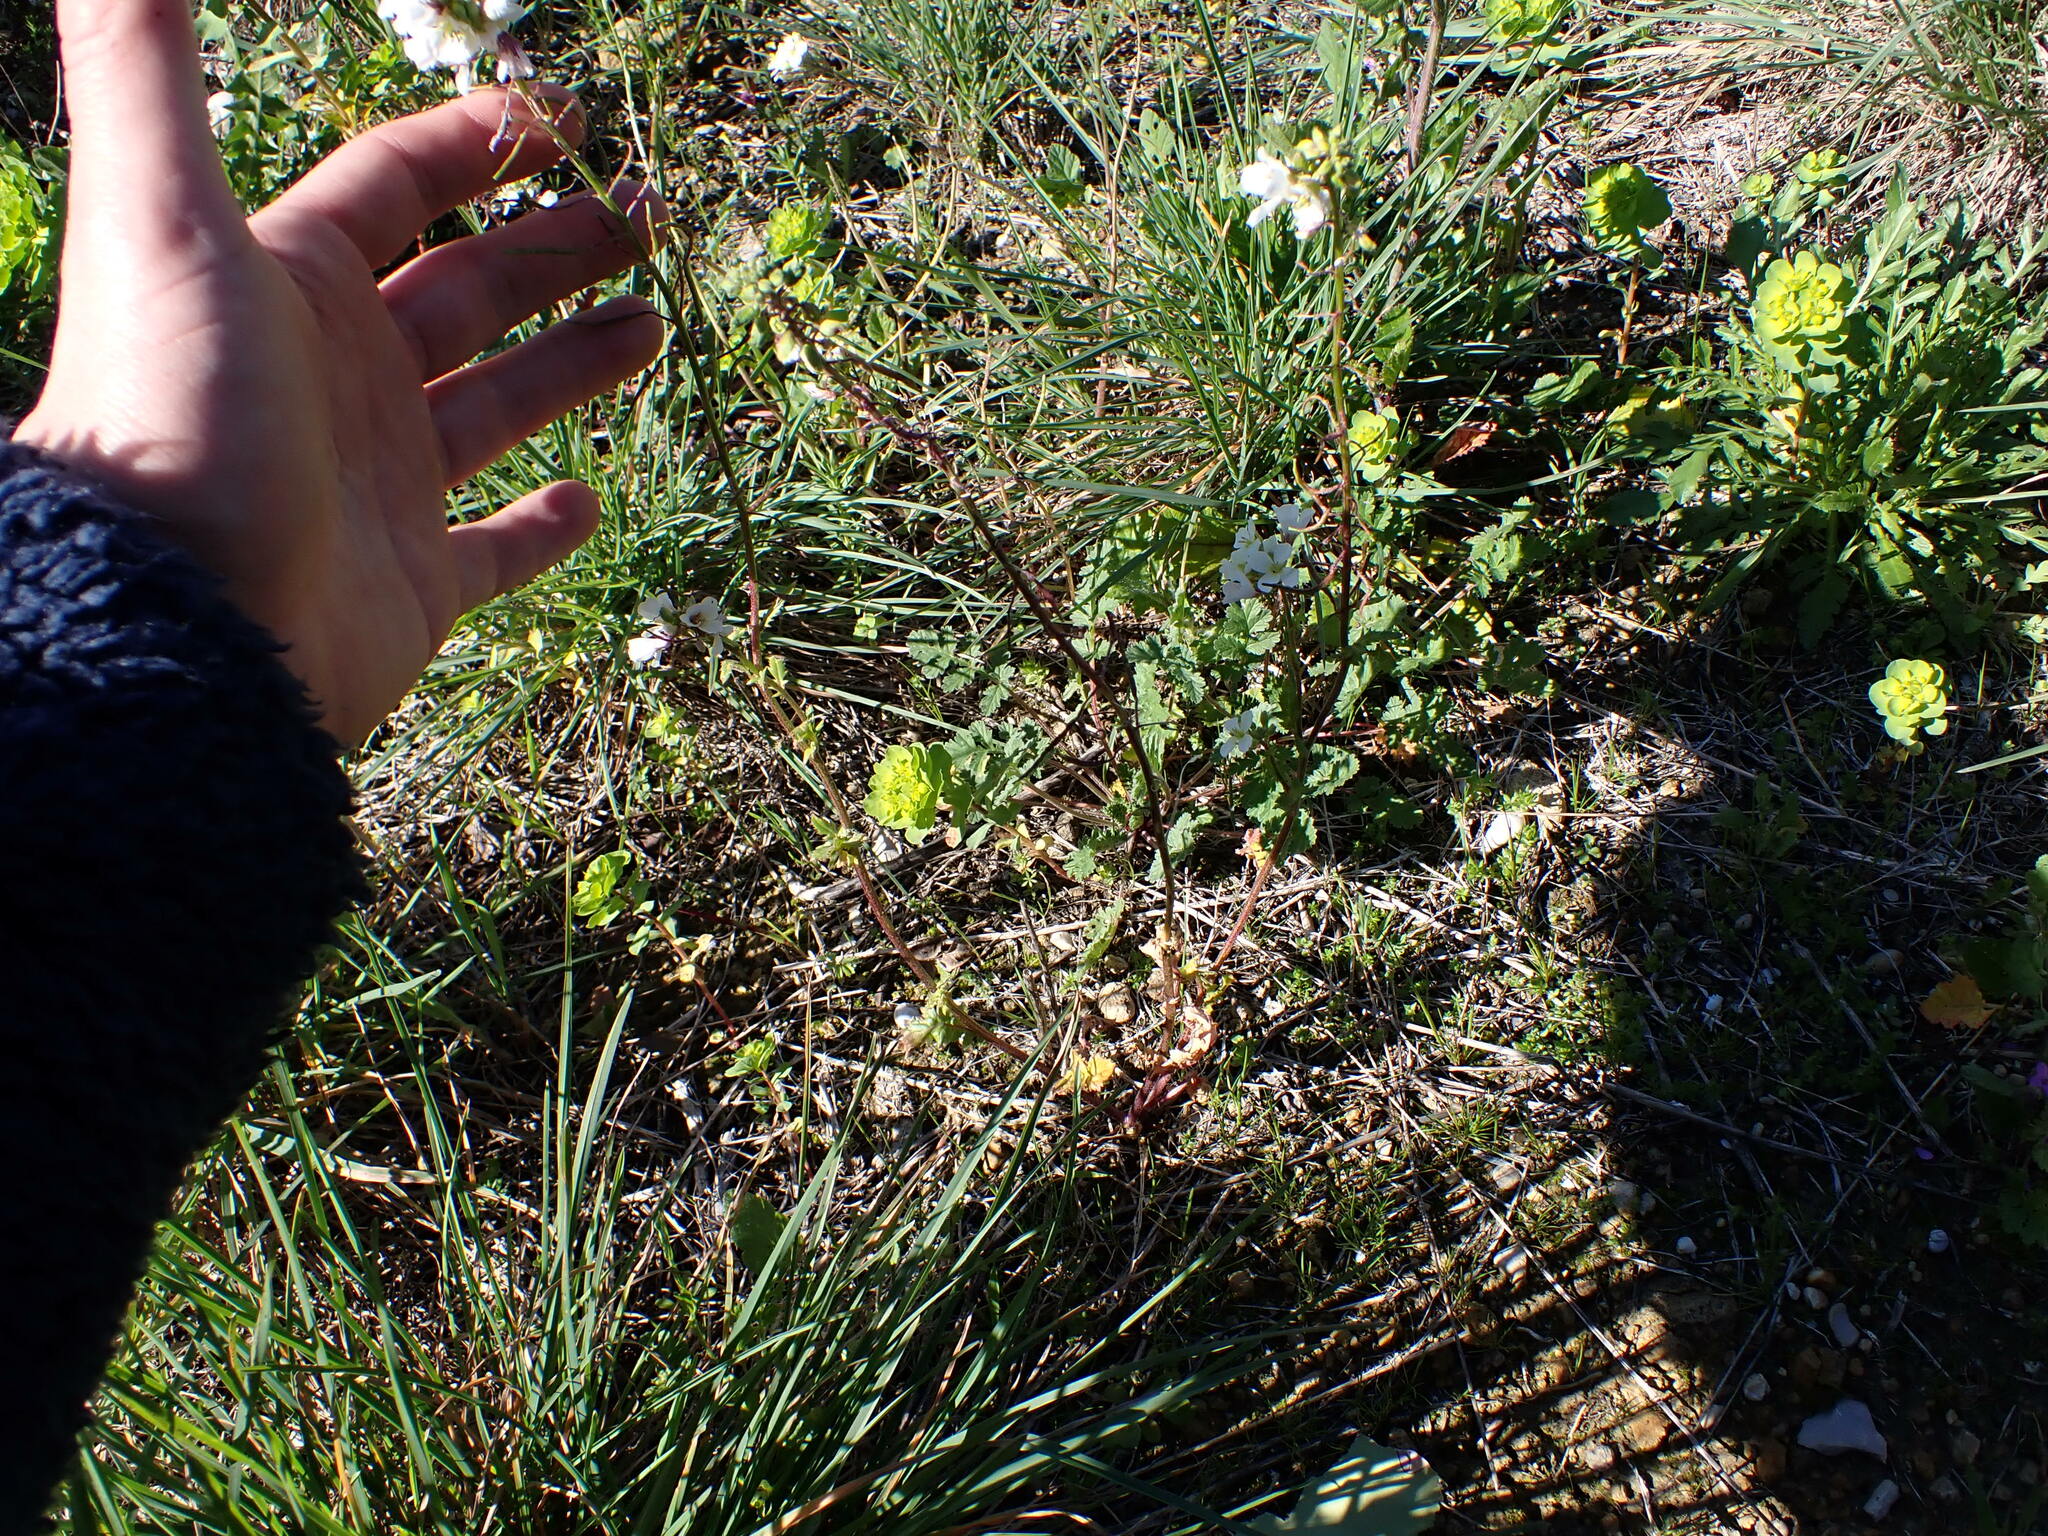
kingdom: Plantae
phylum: Tracheophyta
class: Magnoliopsida
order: Brassicales
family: Brassicaceae
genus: Diplotaxis
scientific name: Diplotaxis erucoides
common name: White rocket
